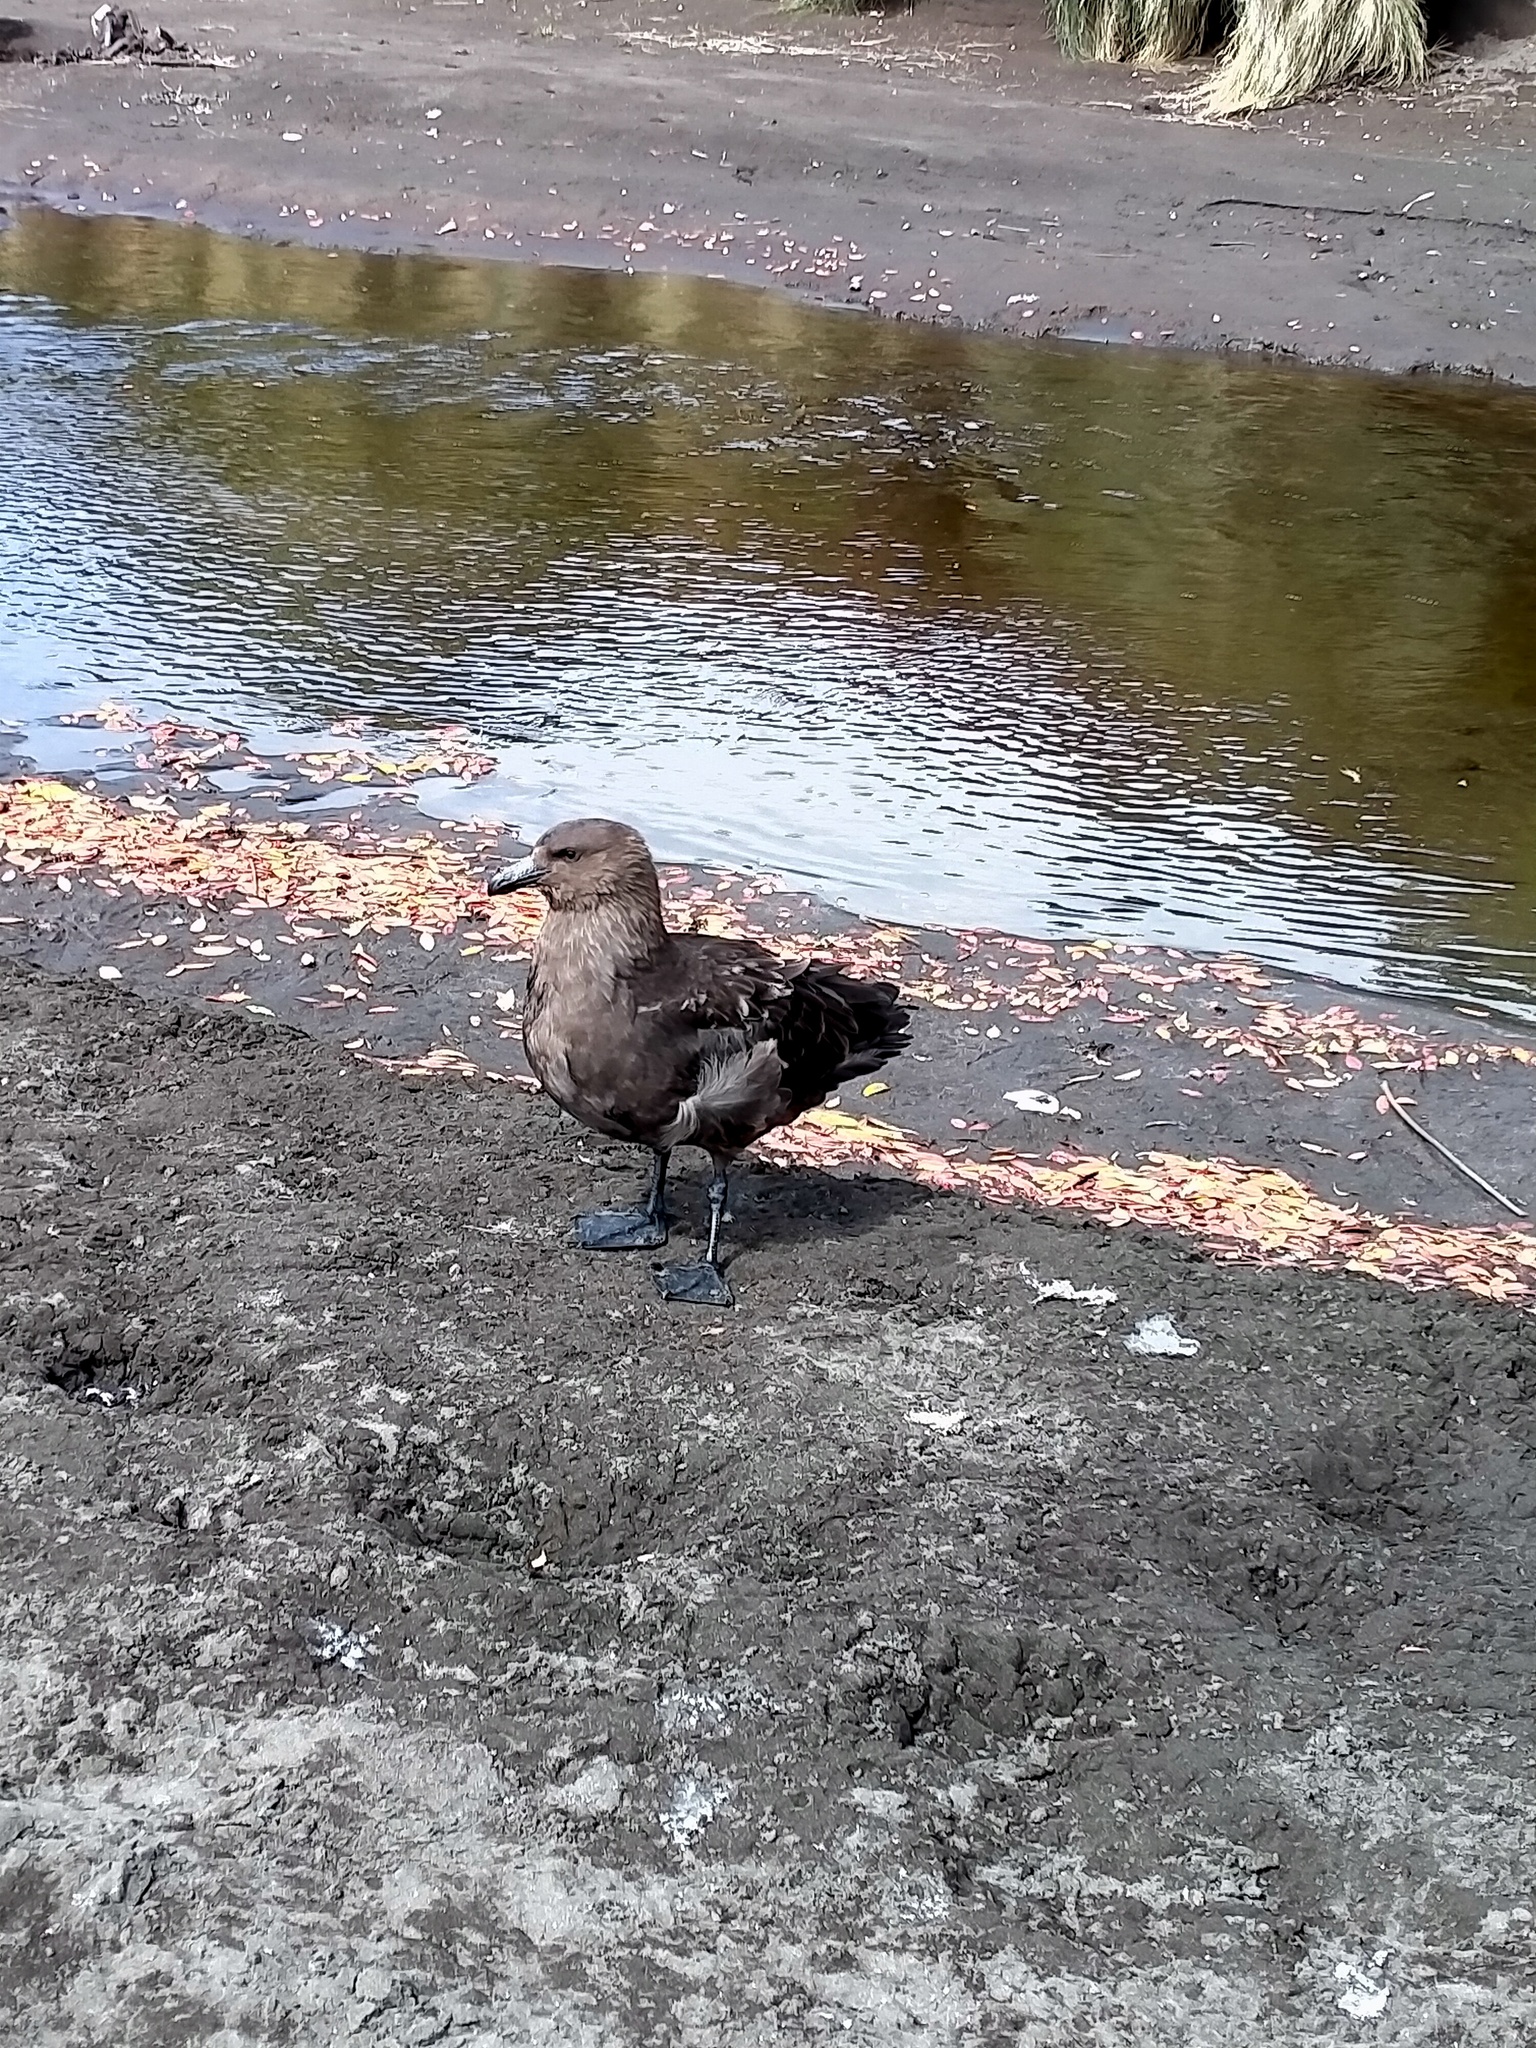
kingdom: Animalia
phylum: Chordata
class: Aves
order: Charadriiformes
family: Stercorariidae
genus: Stercorarius
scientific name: Stercorarius antarcticus
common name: Brown skua
